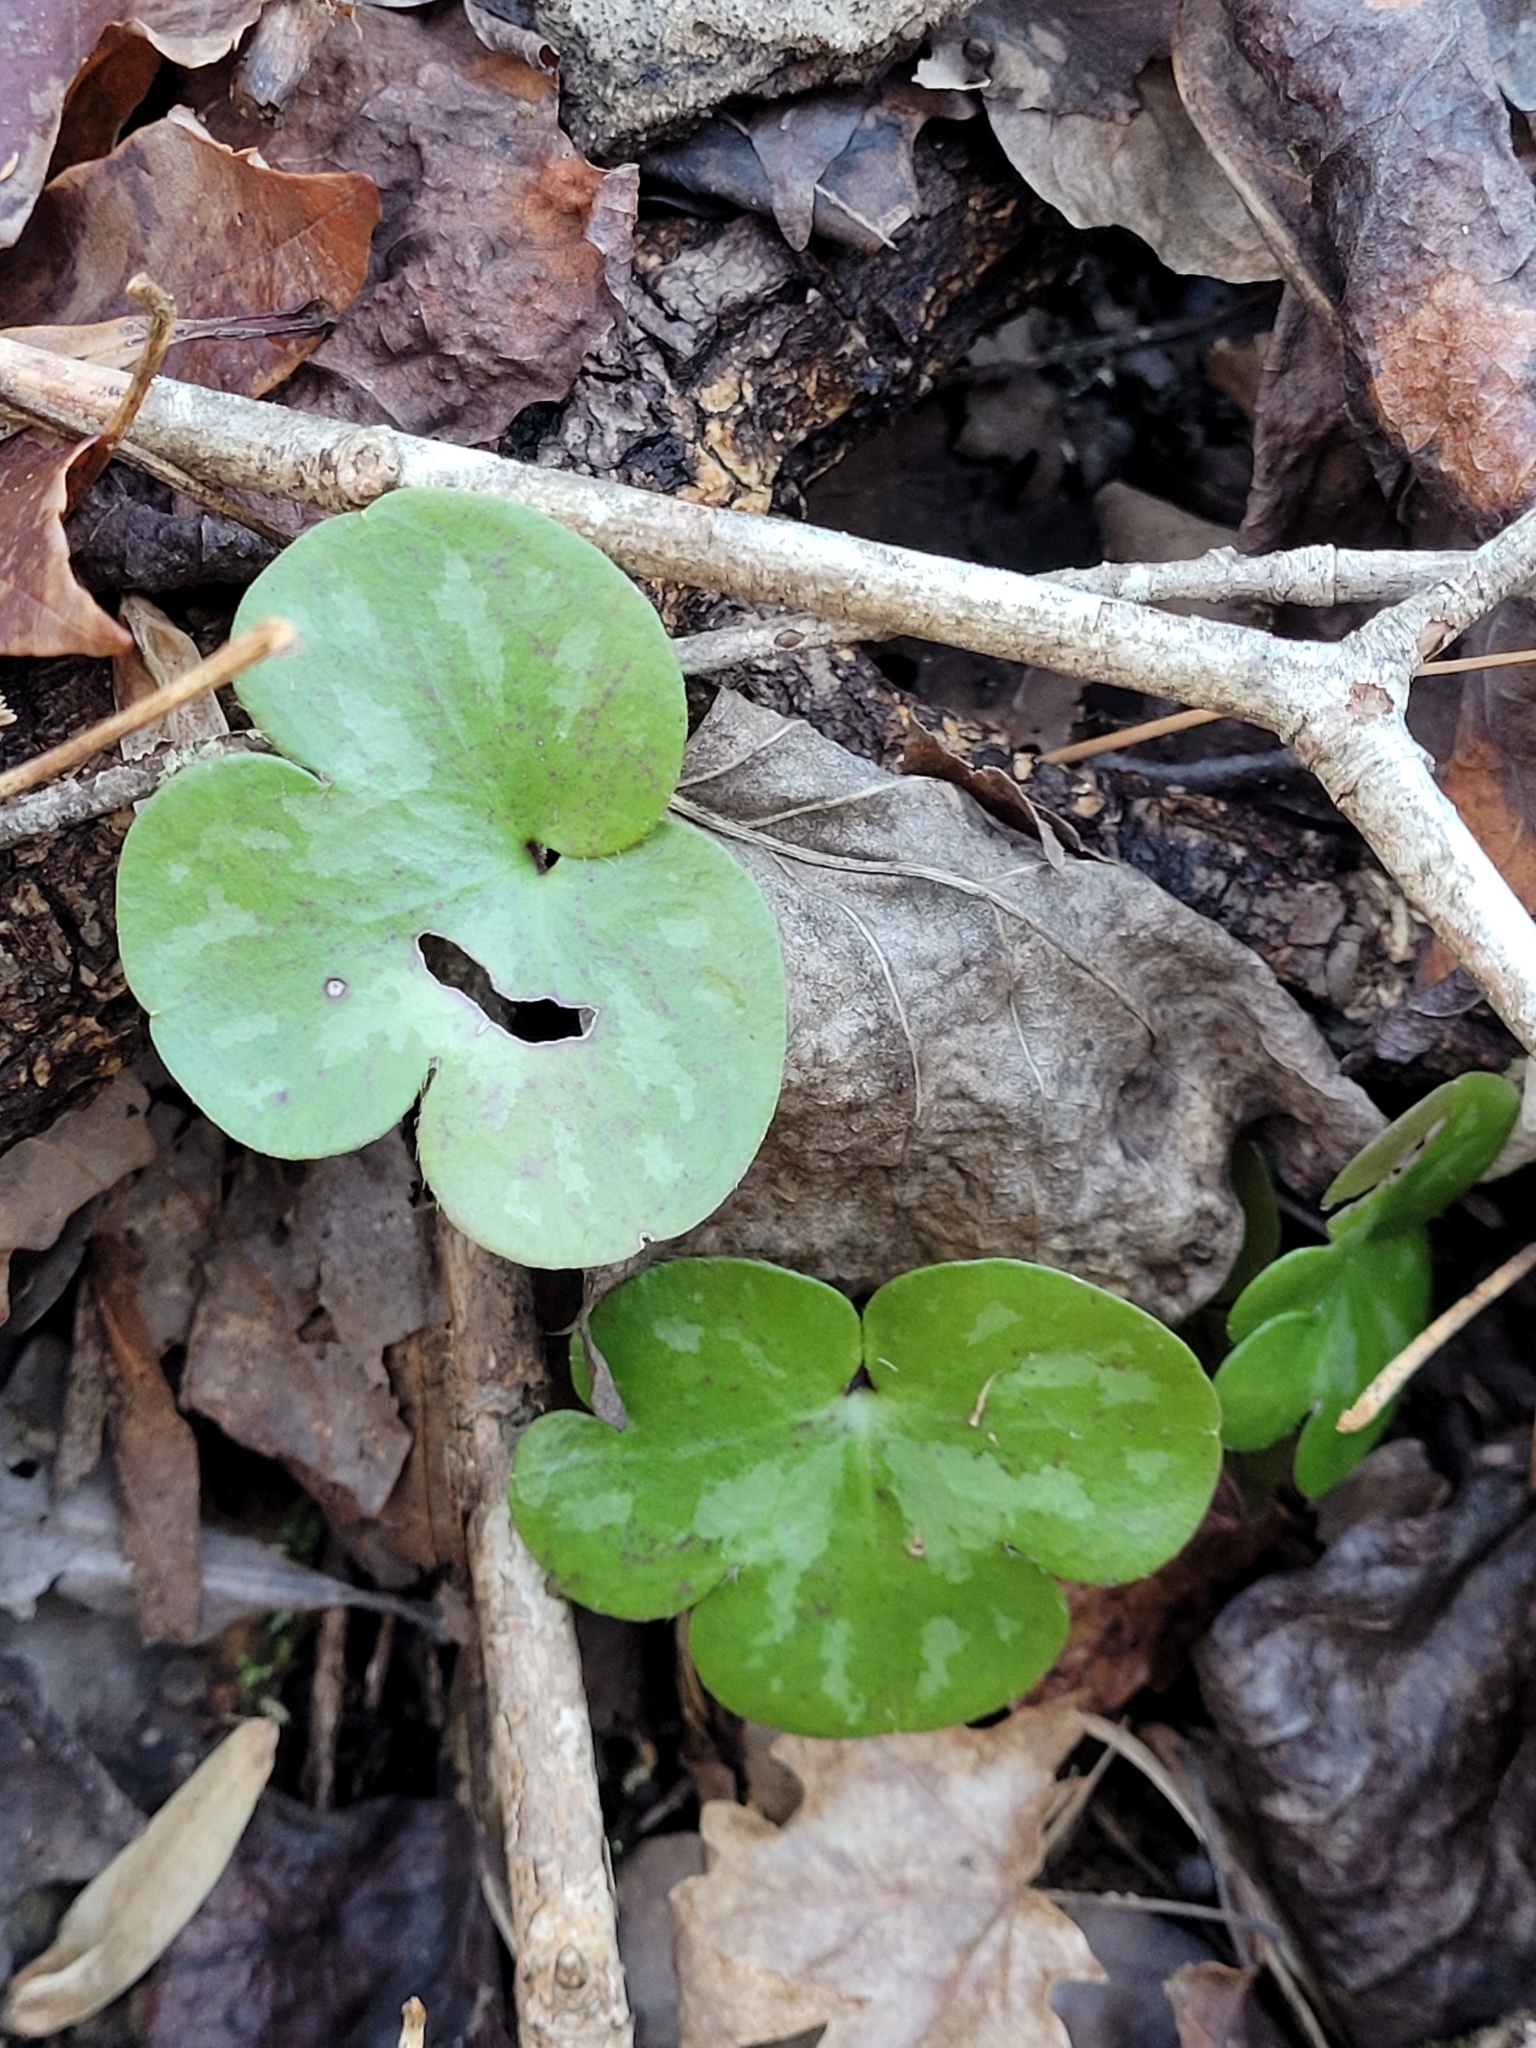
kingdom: Plantae
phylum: Tracheophyta
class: Magnoliopsida
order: Ranunculales
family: Ranunculaceae
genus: Hepatica
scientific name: Hepatica americana
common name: American hepatica
